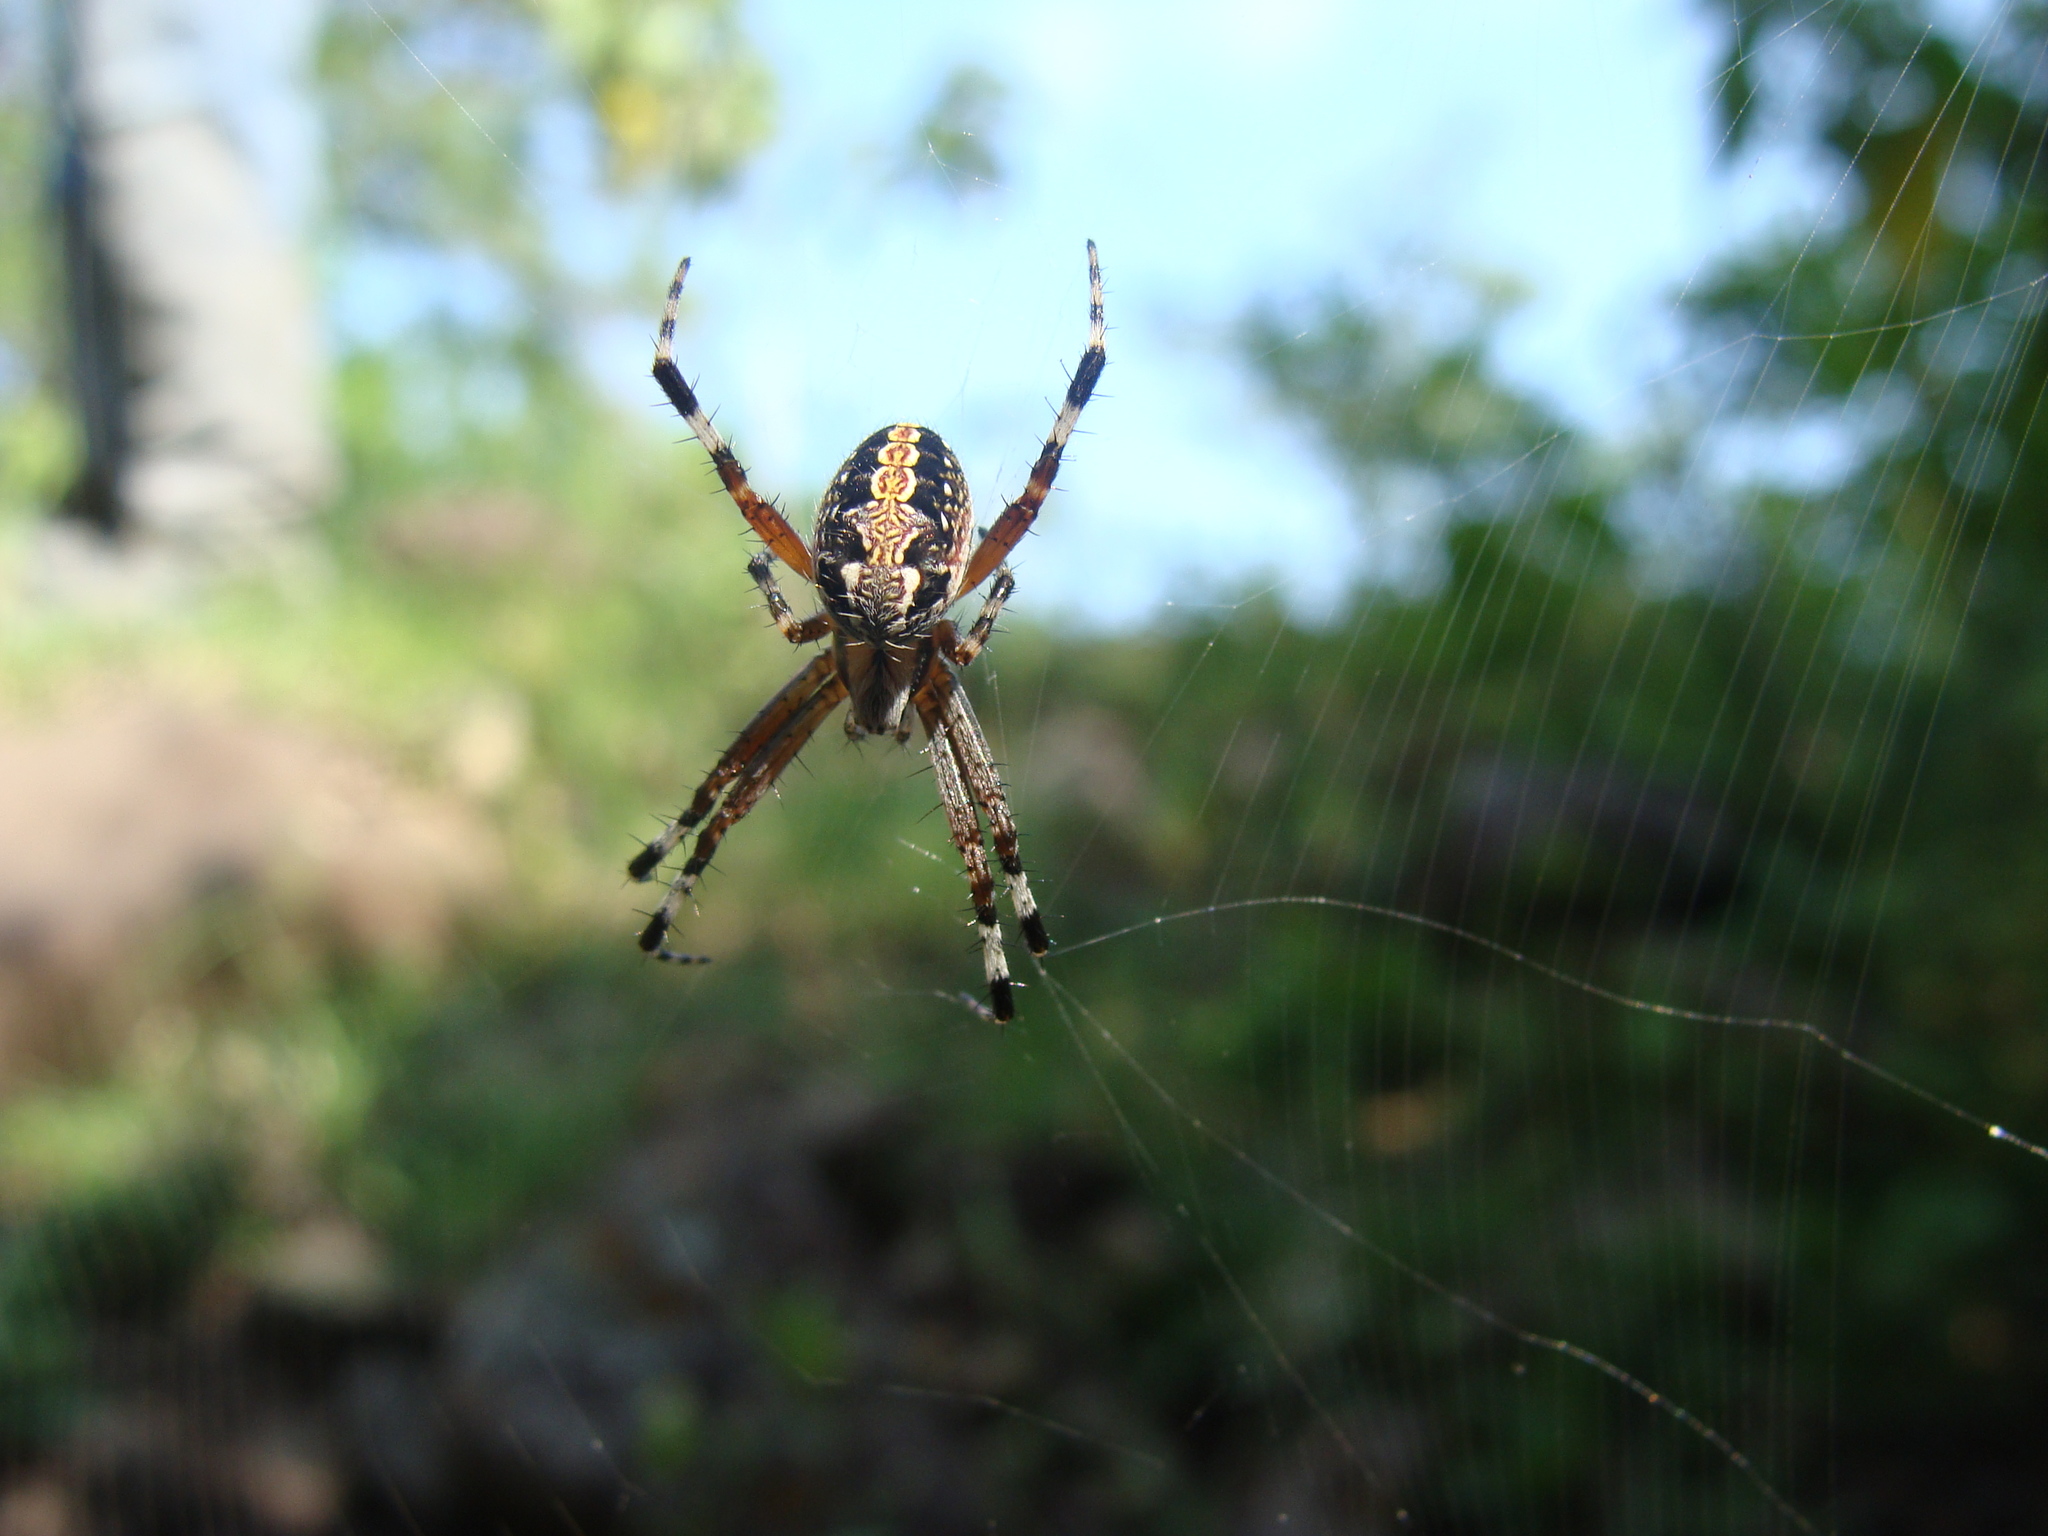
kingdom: Animalia
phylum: Arthropoda
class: Arachnida
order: Araneae
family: Araneidae
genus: Neoscona
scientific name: Neoscona oaxacensis
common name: Orb weavers
